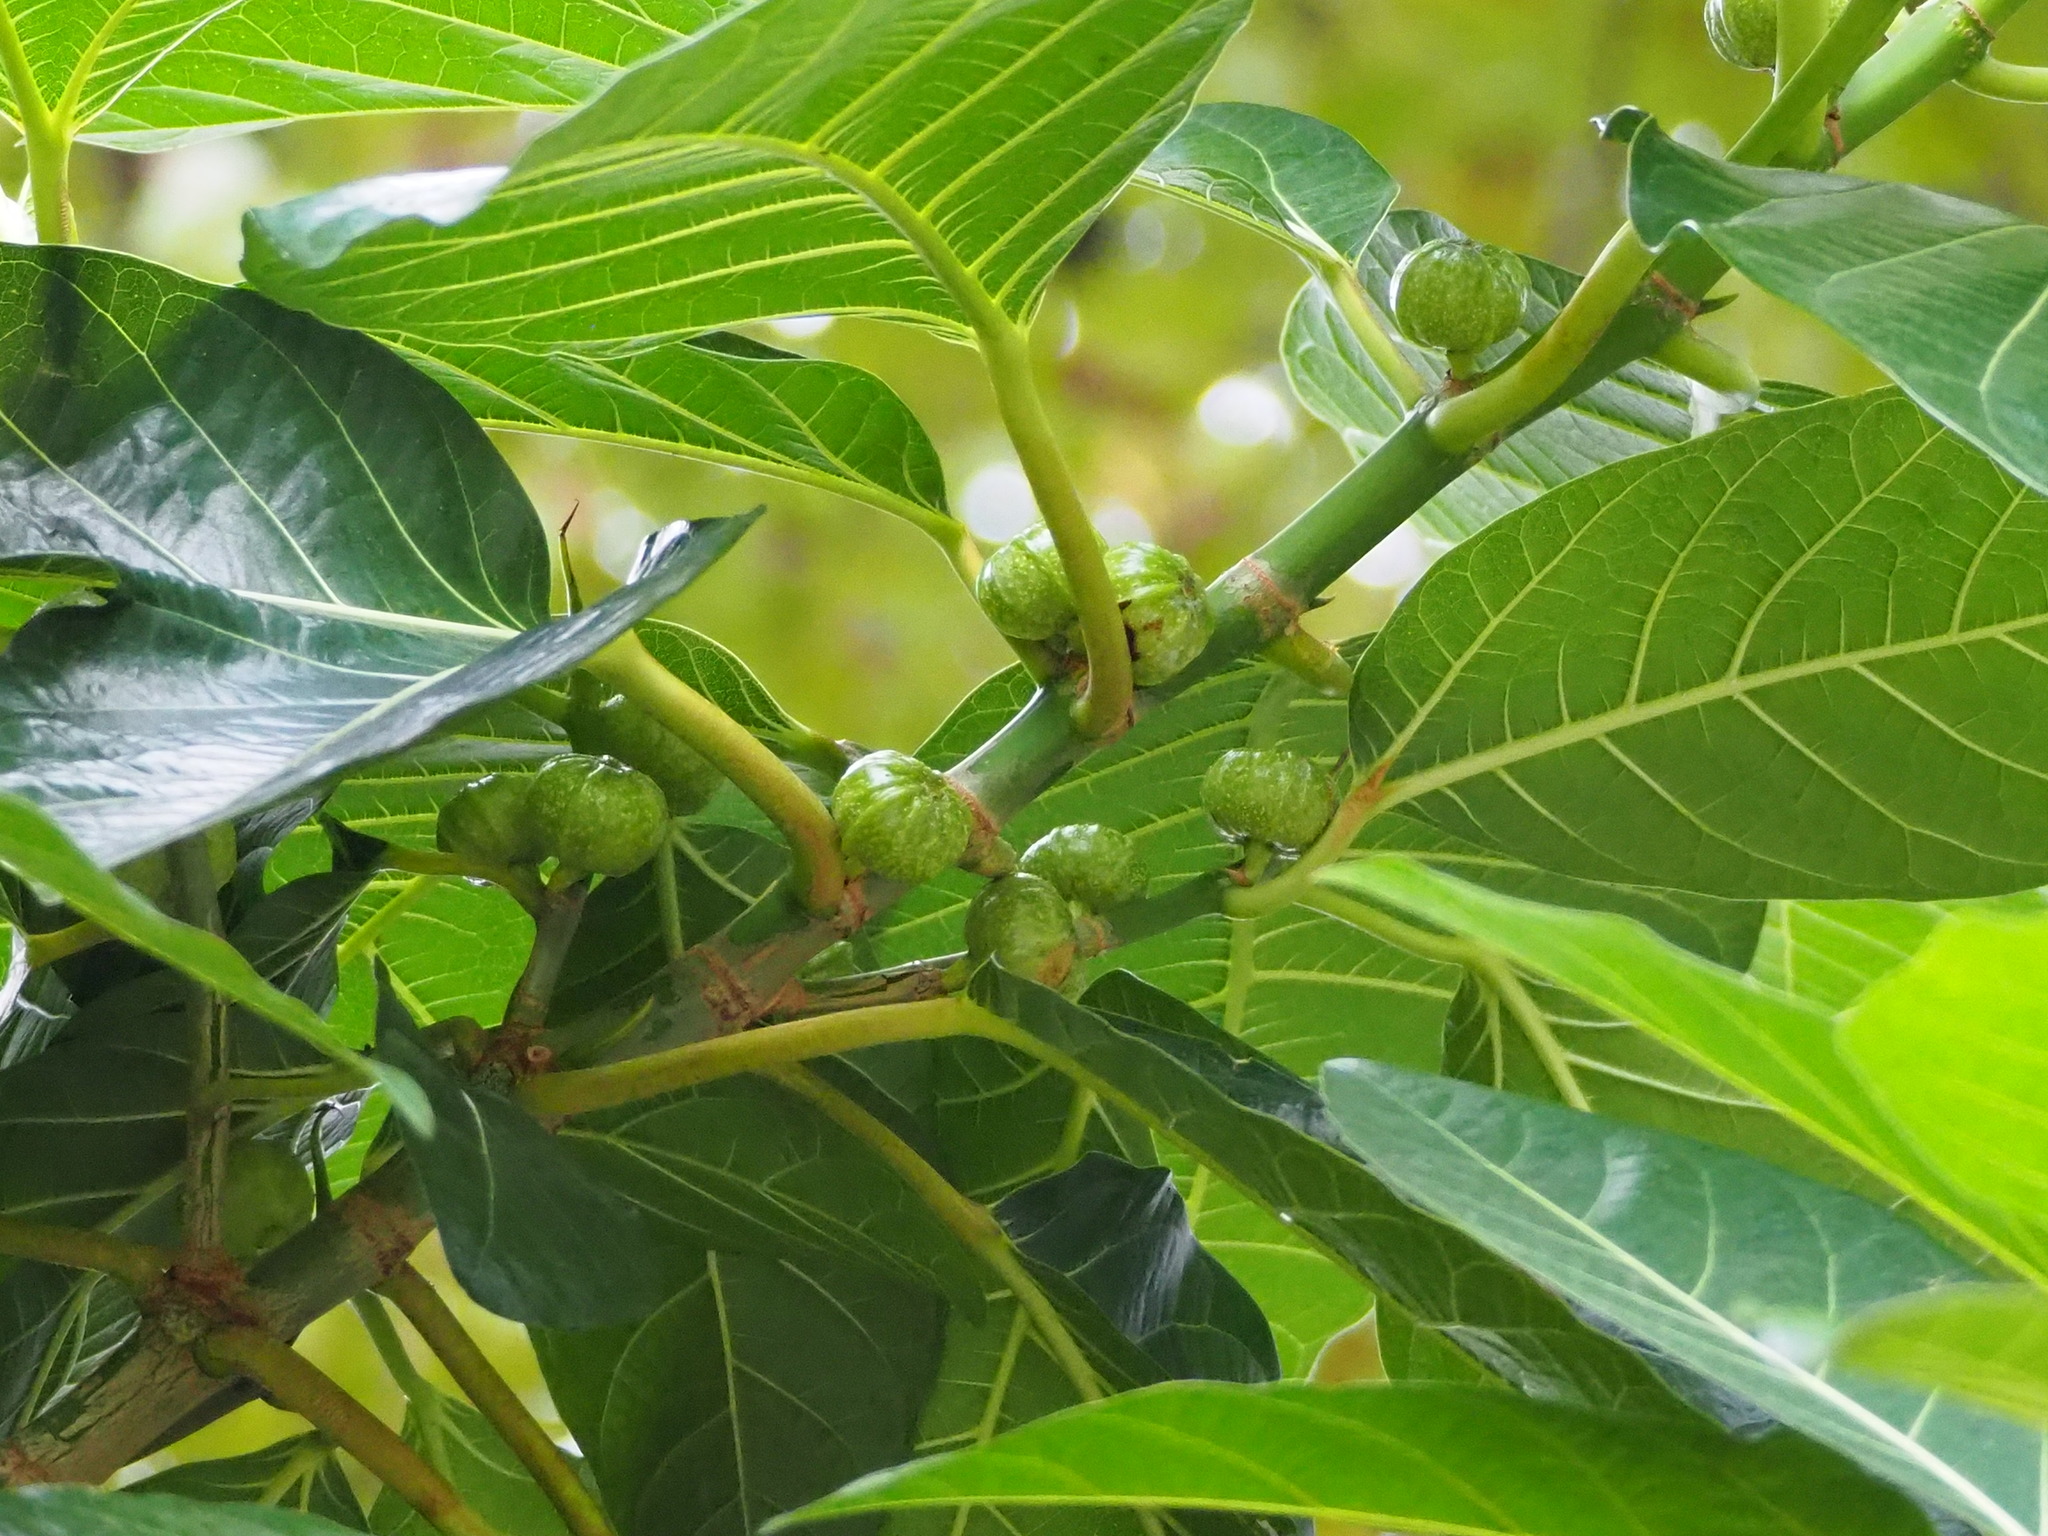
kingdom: Plantae
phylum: Tracheophyta
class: Magnoliopsida
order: Rosales
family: Moraceae
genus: Ficus
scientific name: Ficus septica
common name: Septic fig
